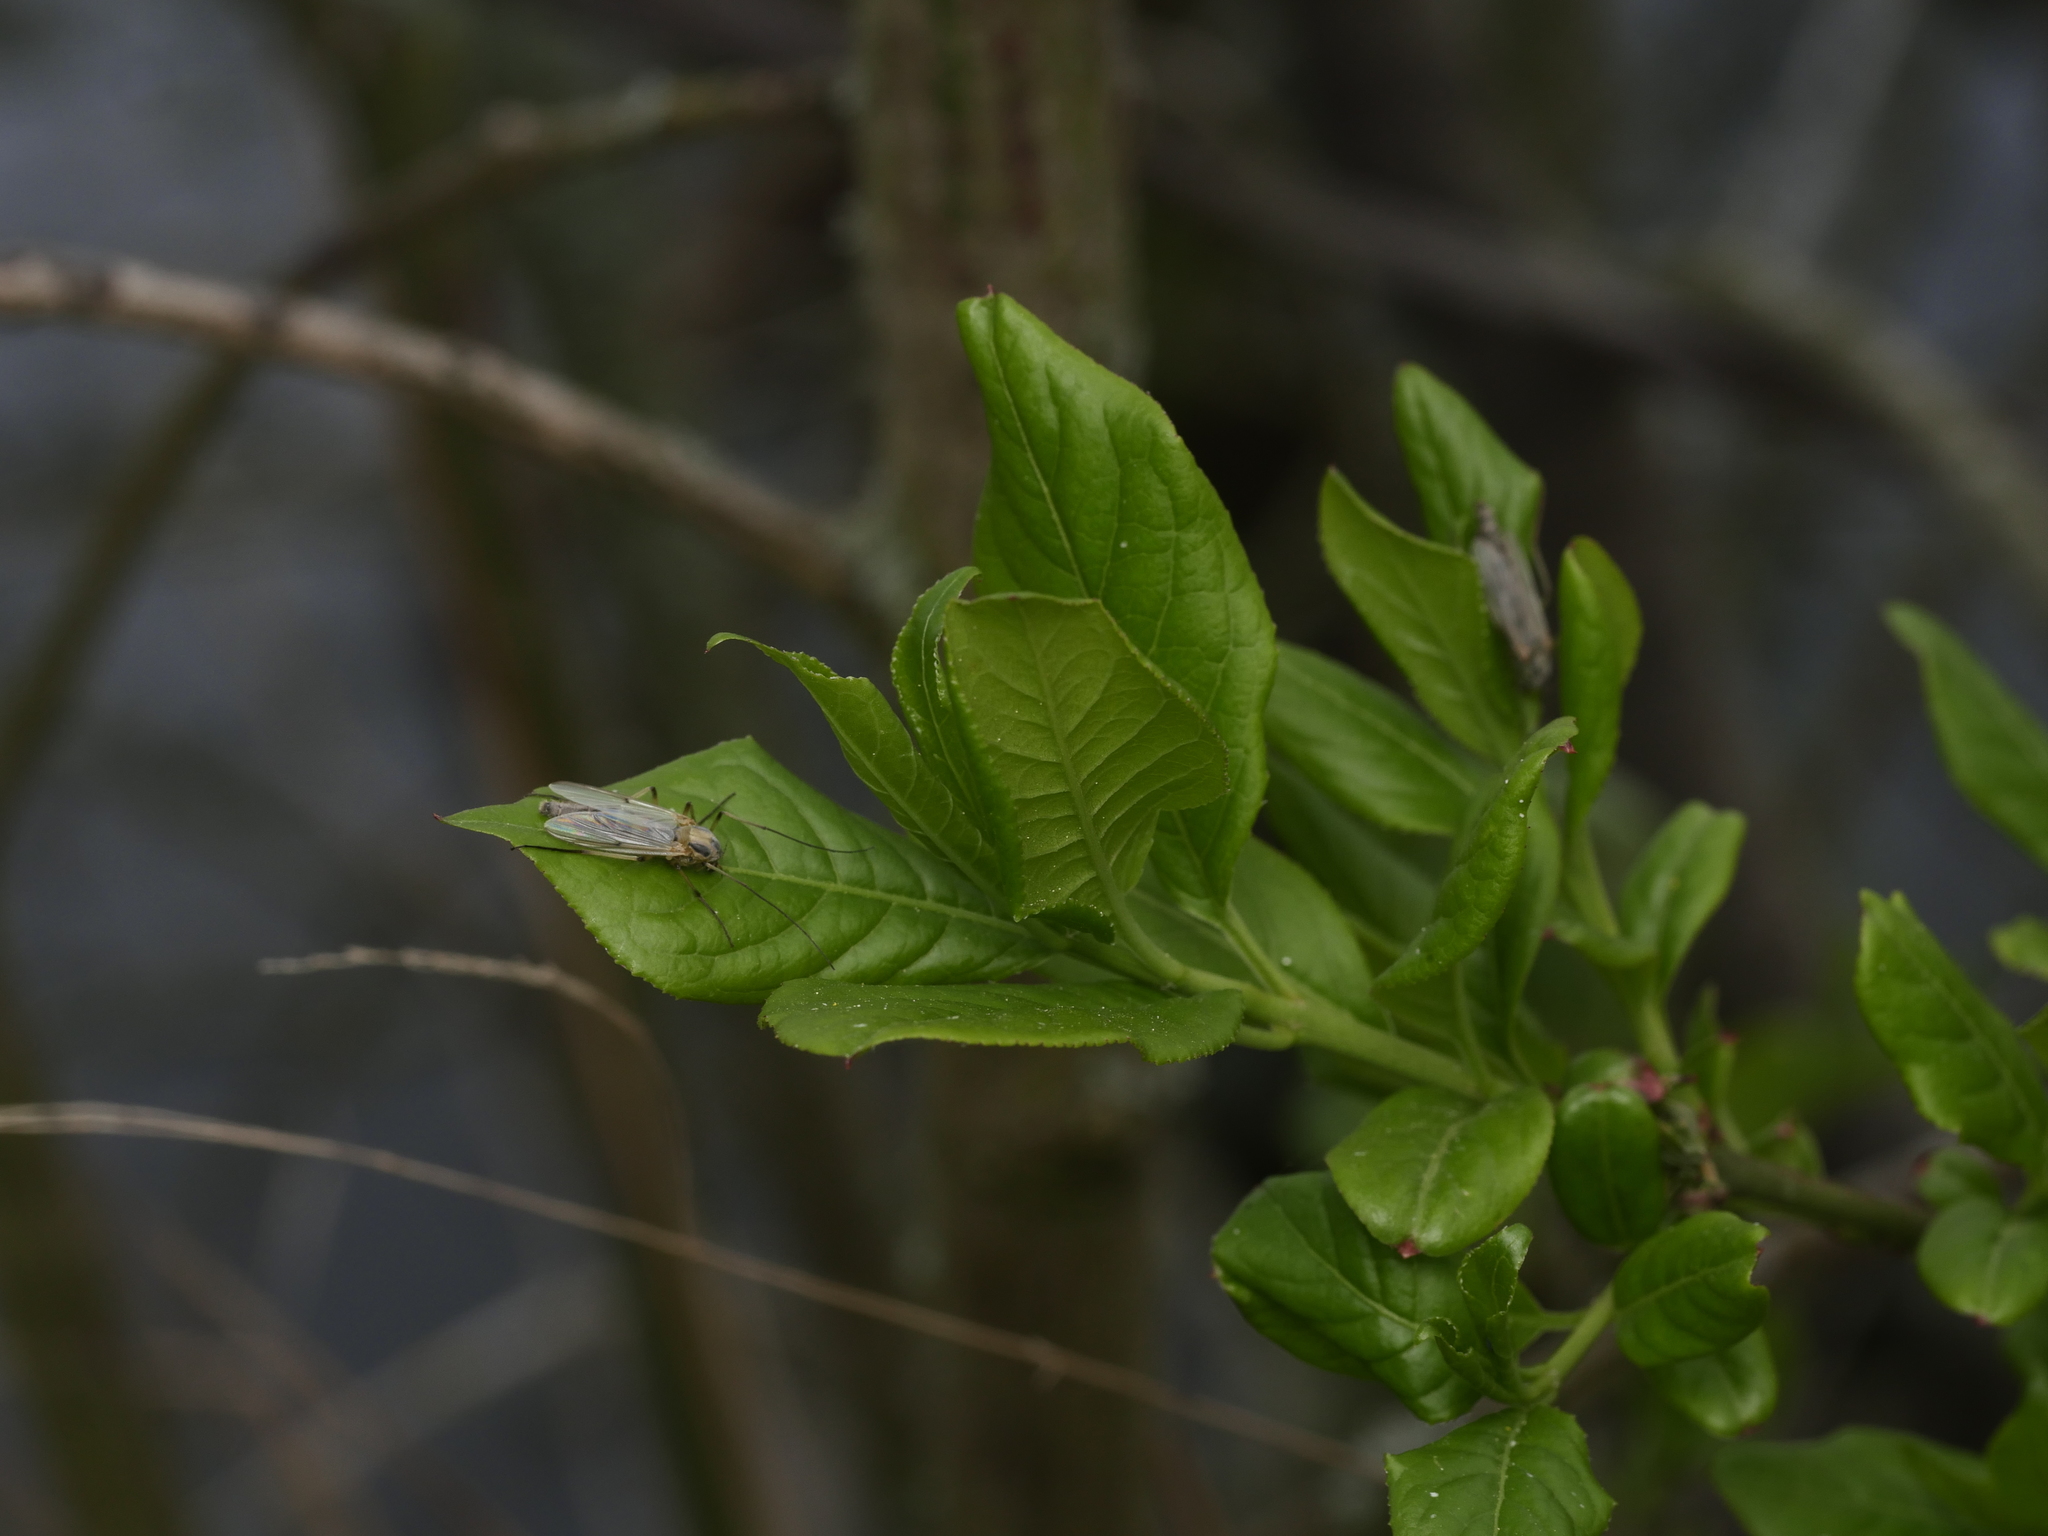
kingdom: Plantae
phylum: Tracheophyta
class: Magnoliopsida
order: Celastrales
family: Celastraceae
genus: Euonymus
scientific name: Euonymus europaeus
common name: Spindle
